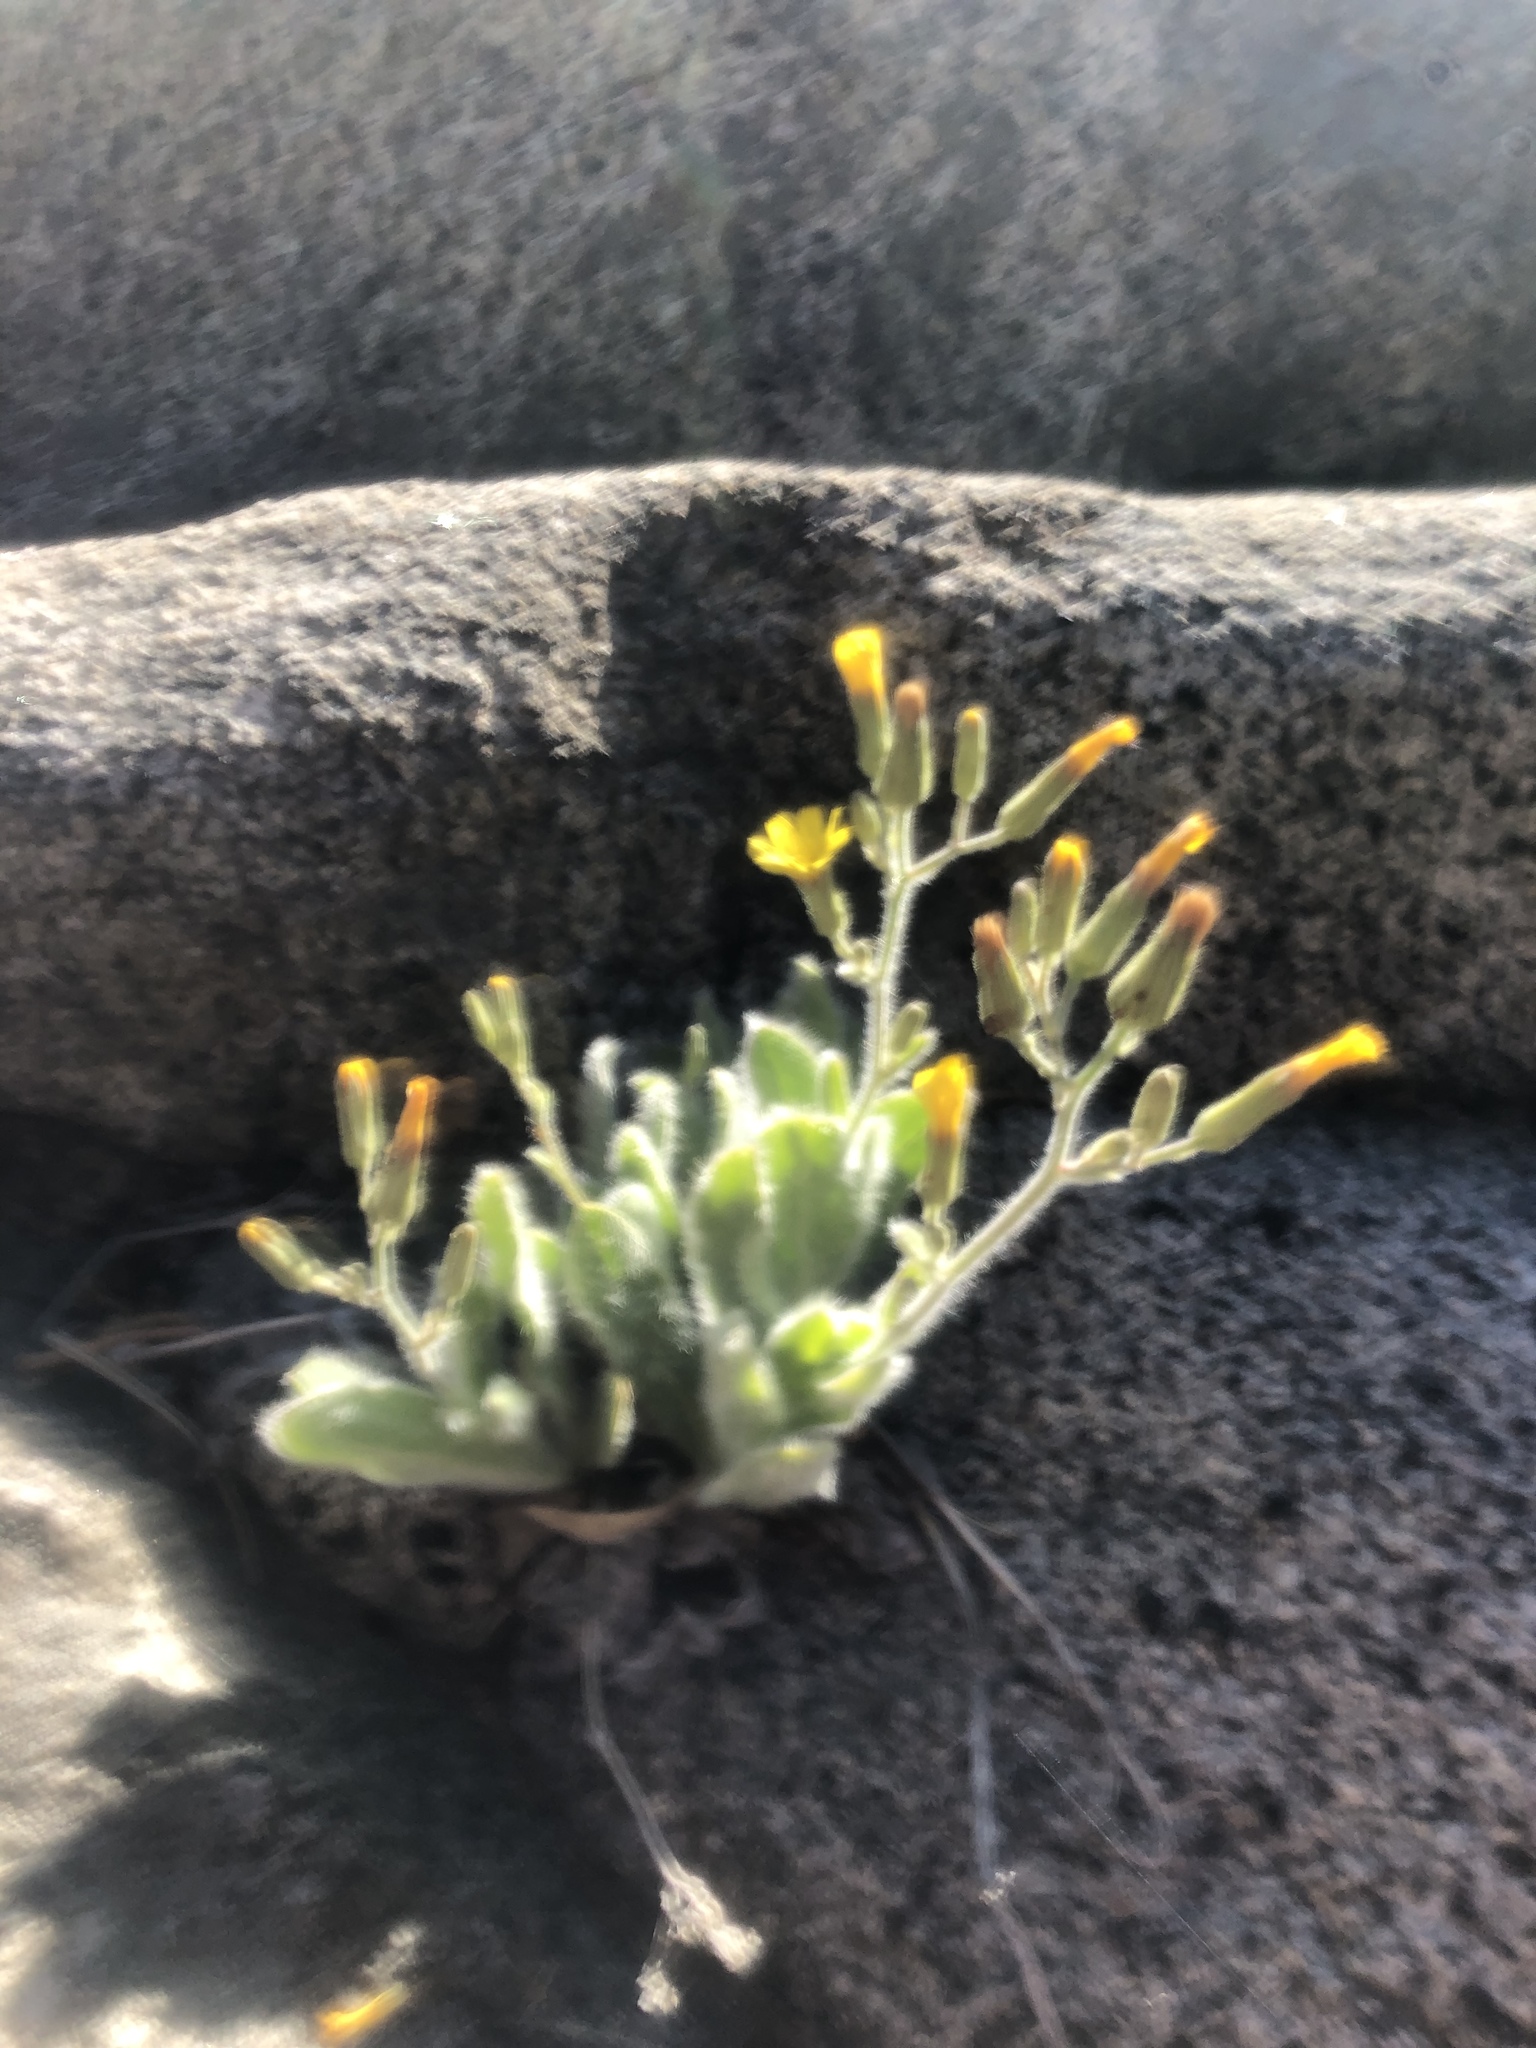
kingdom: Plantae
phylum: Tracheophyta
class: Magnoliopsida
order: Asterales
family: Asteraceae
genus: Hieracium
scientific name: Hieracium horridum
